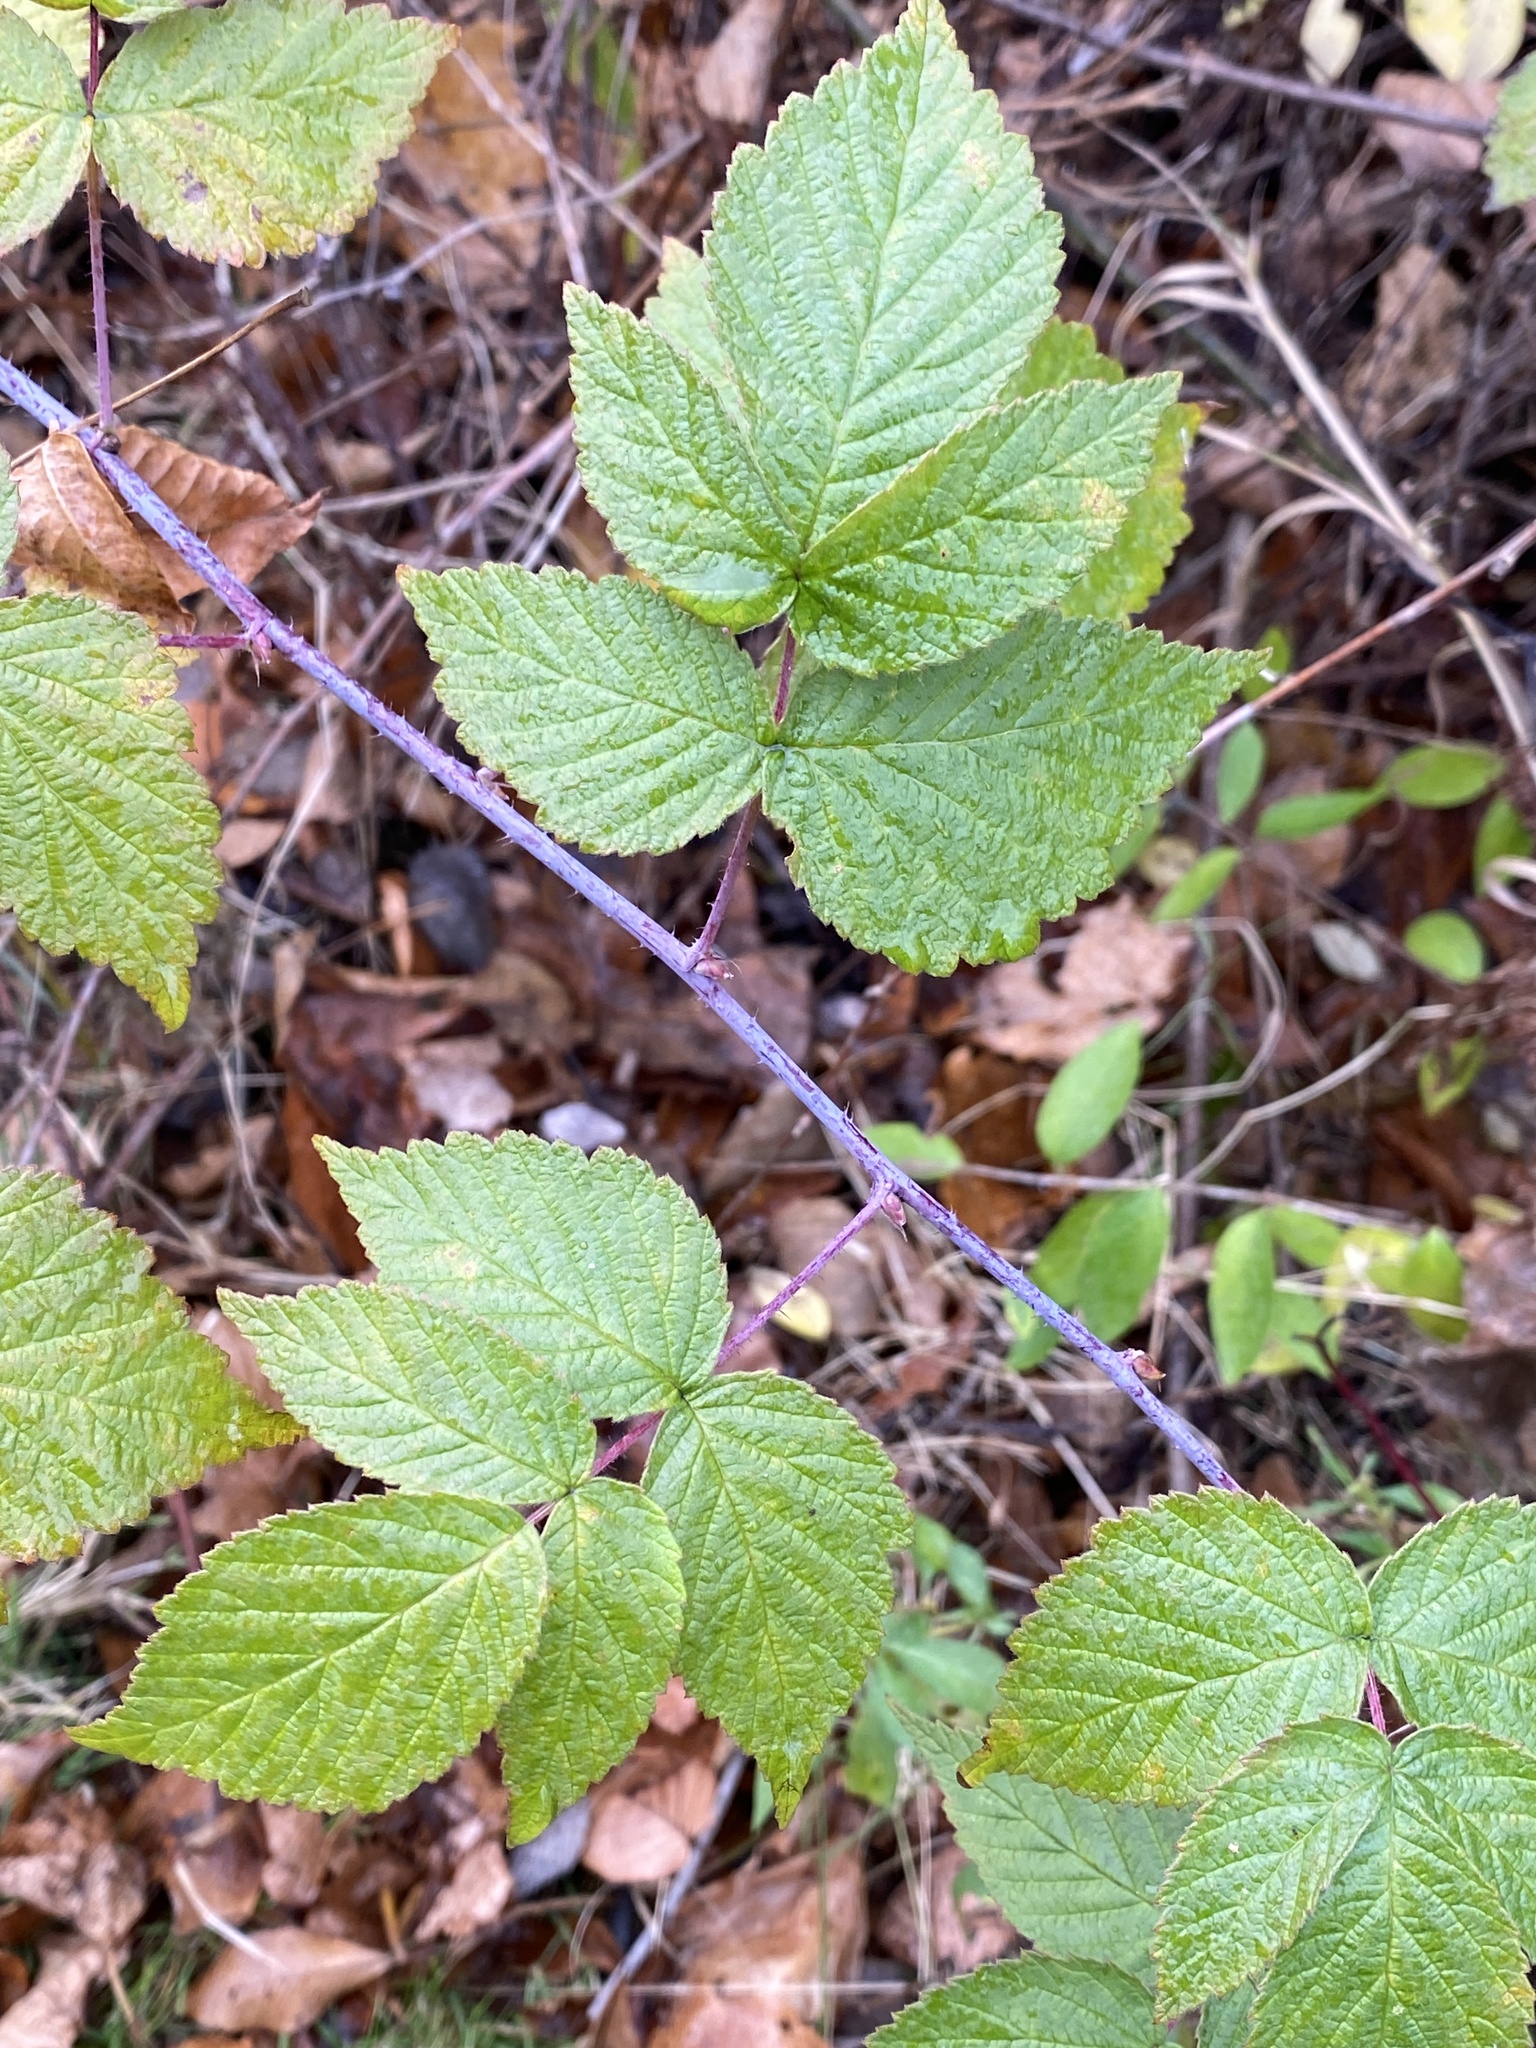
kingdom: Plantae
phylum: Tracheophyta
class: Magnoliopsida
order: Rosales
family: Rosaceae
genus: Rubus
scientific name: Rubus occidentalis
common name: Black raspberry
